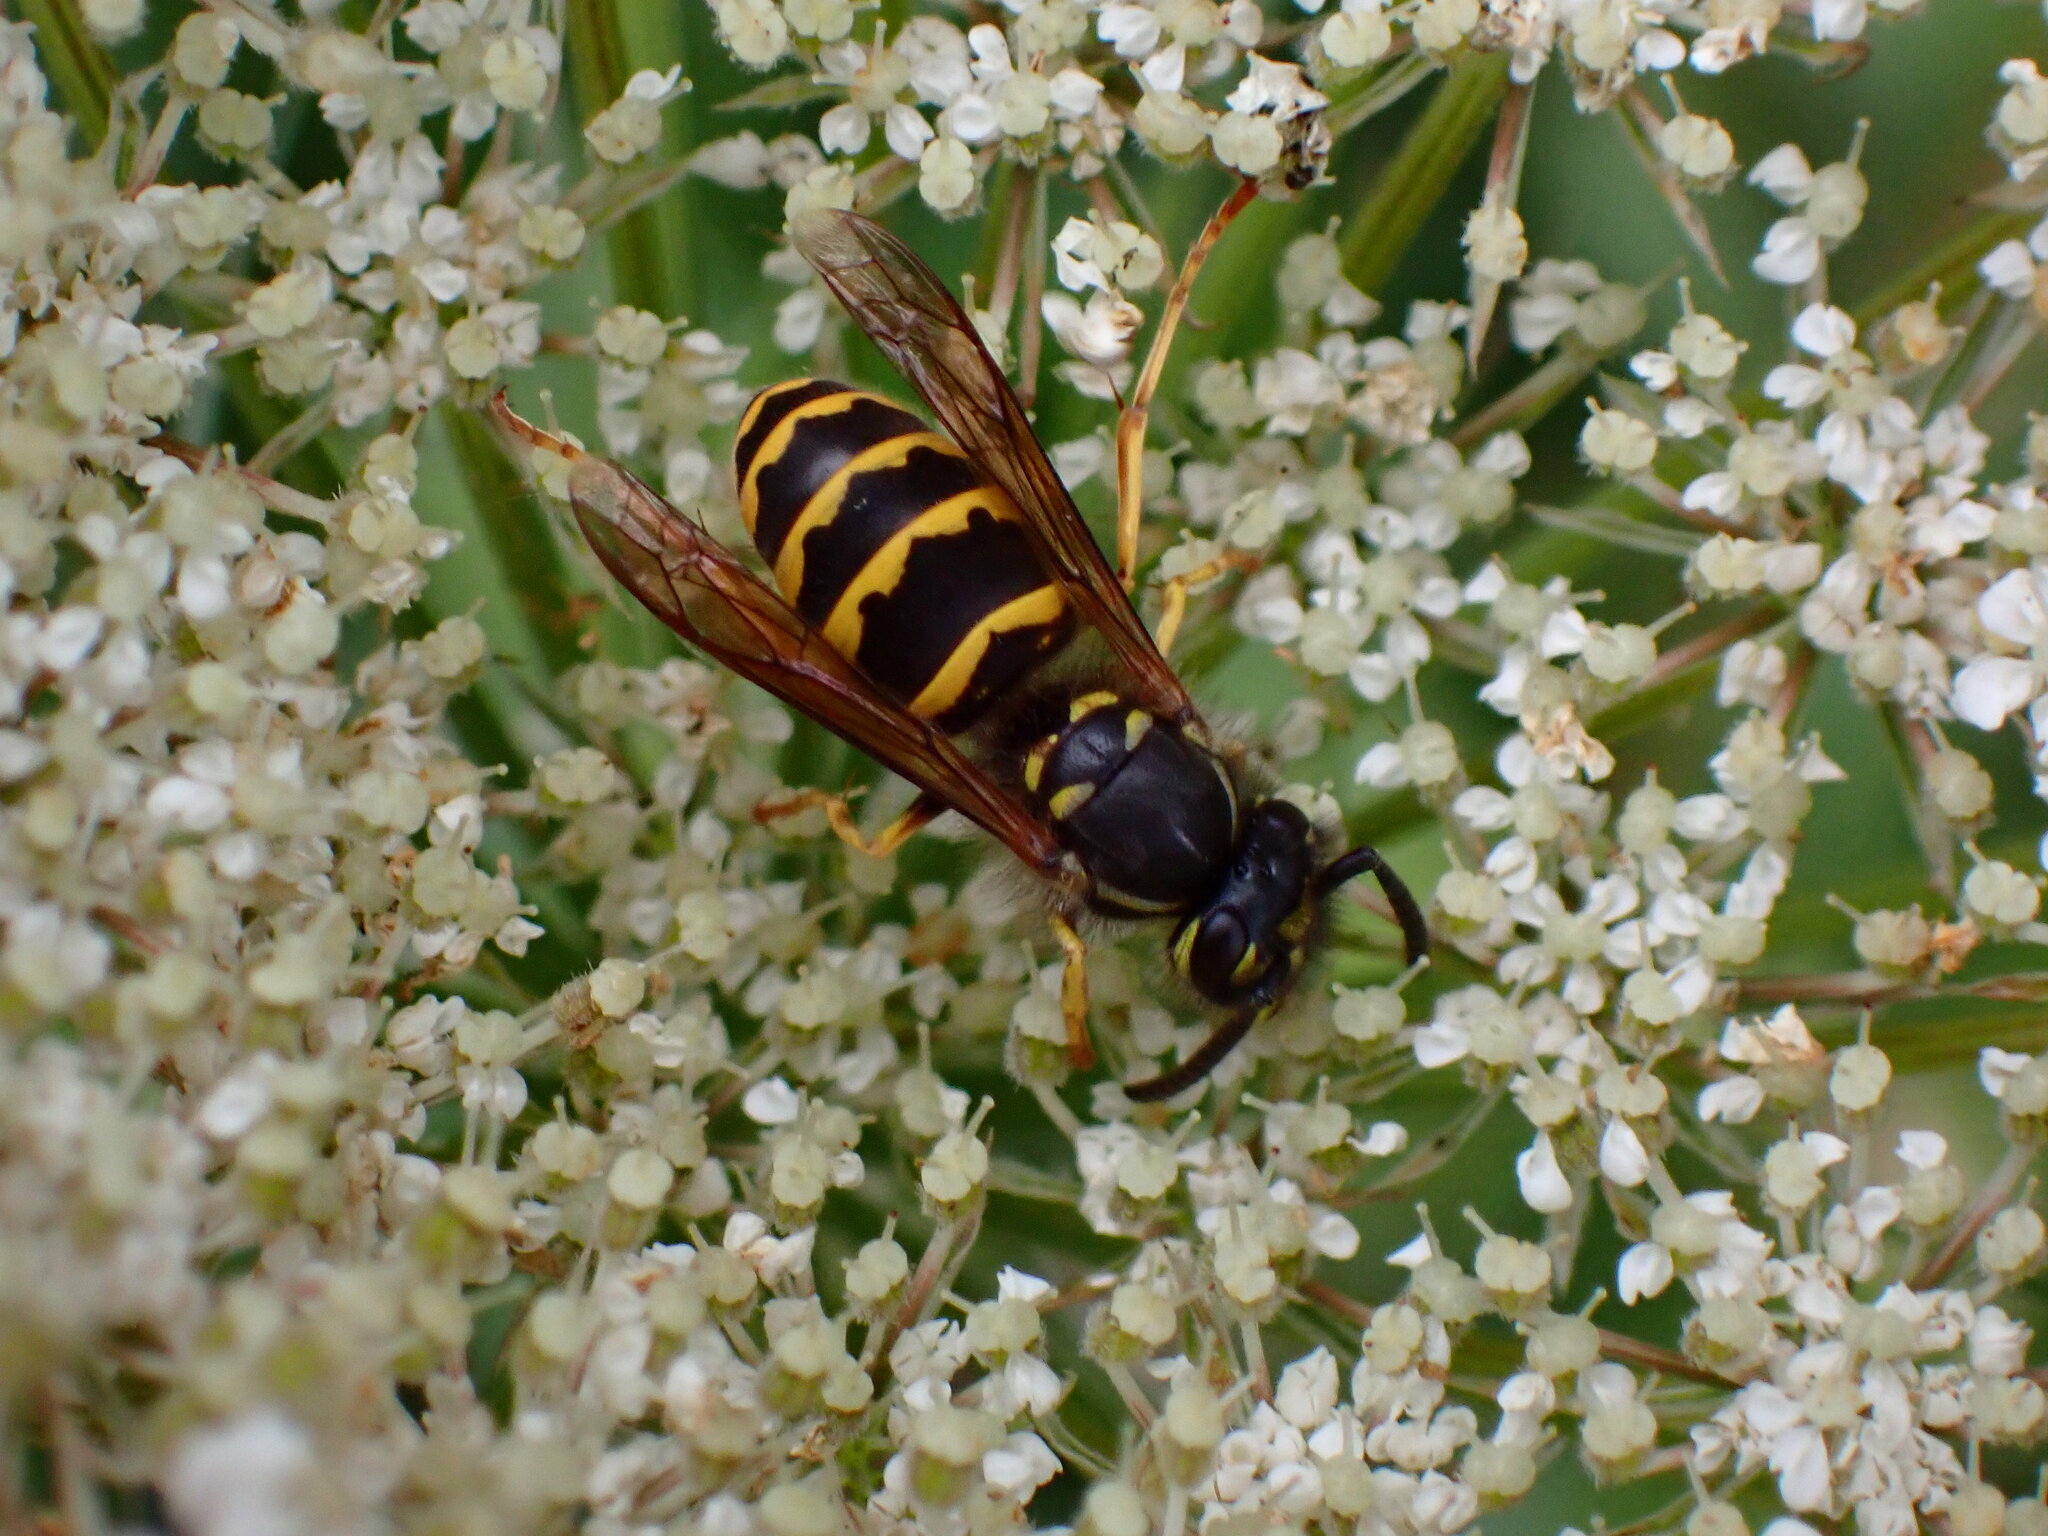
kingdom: Animalia
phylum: Arthropoda
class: Insecta
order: Hymenoptera
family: Vespidae
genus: Vespula
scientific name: Vespula alascensis
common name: Alaska yellowjacket
